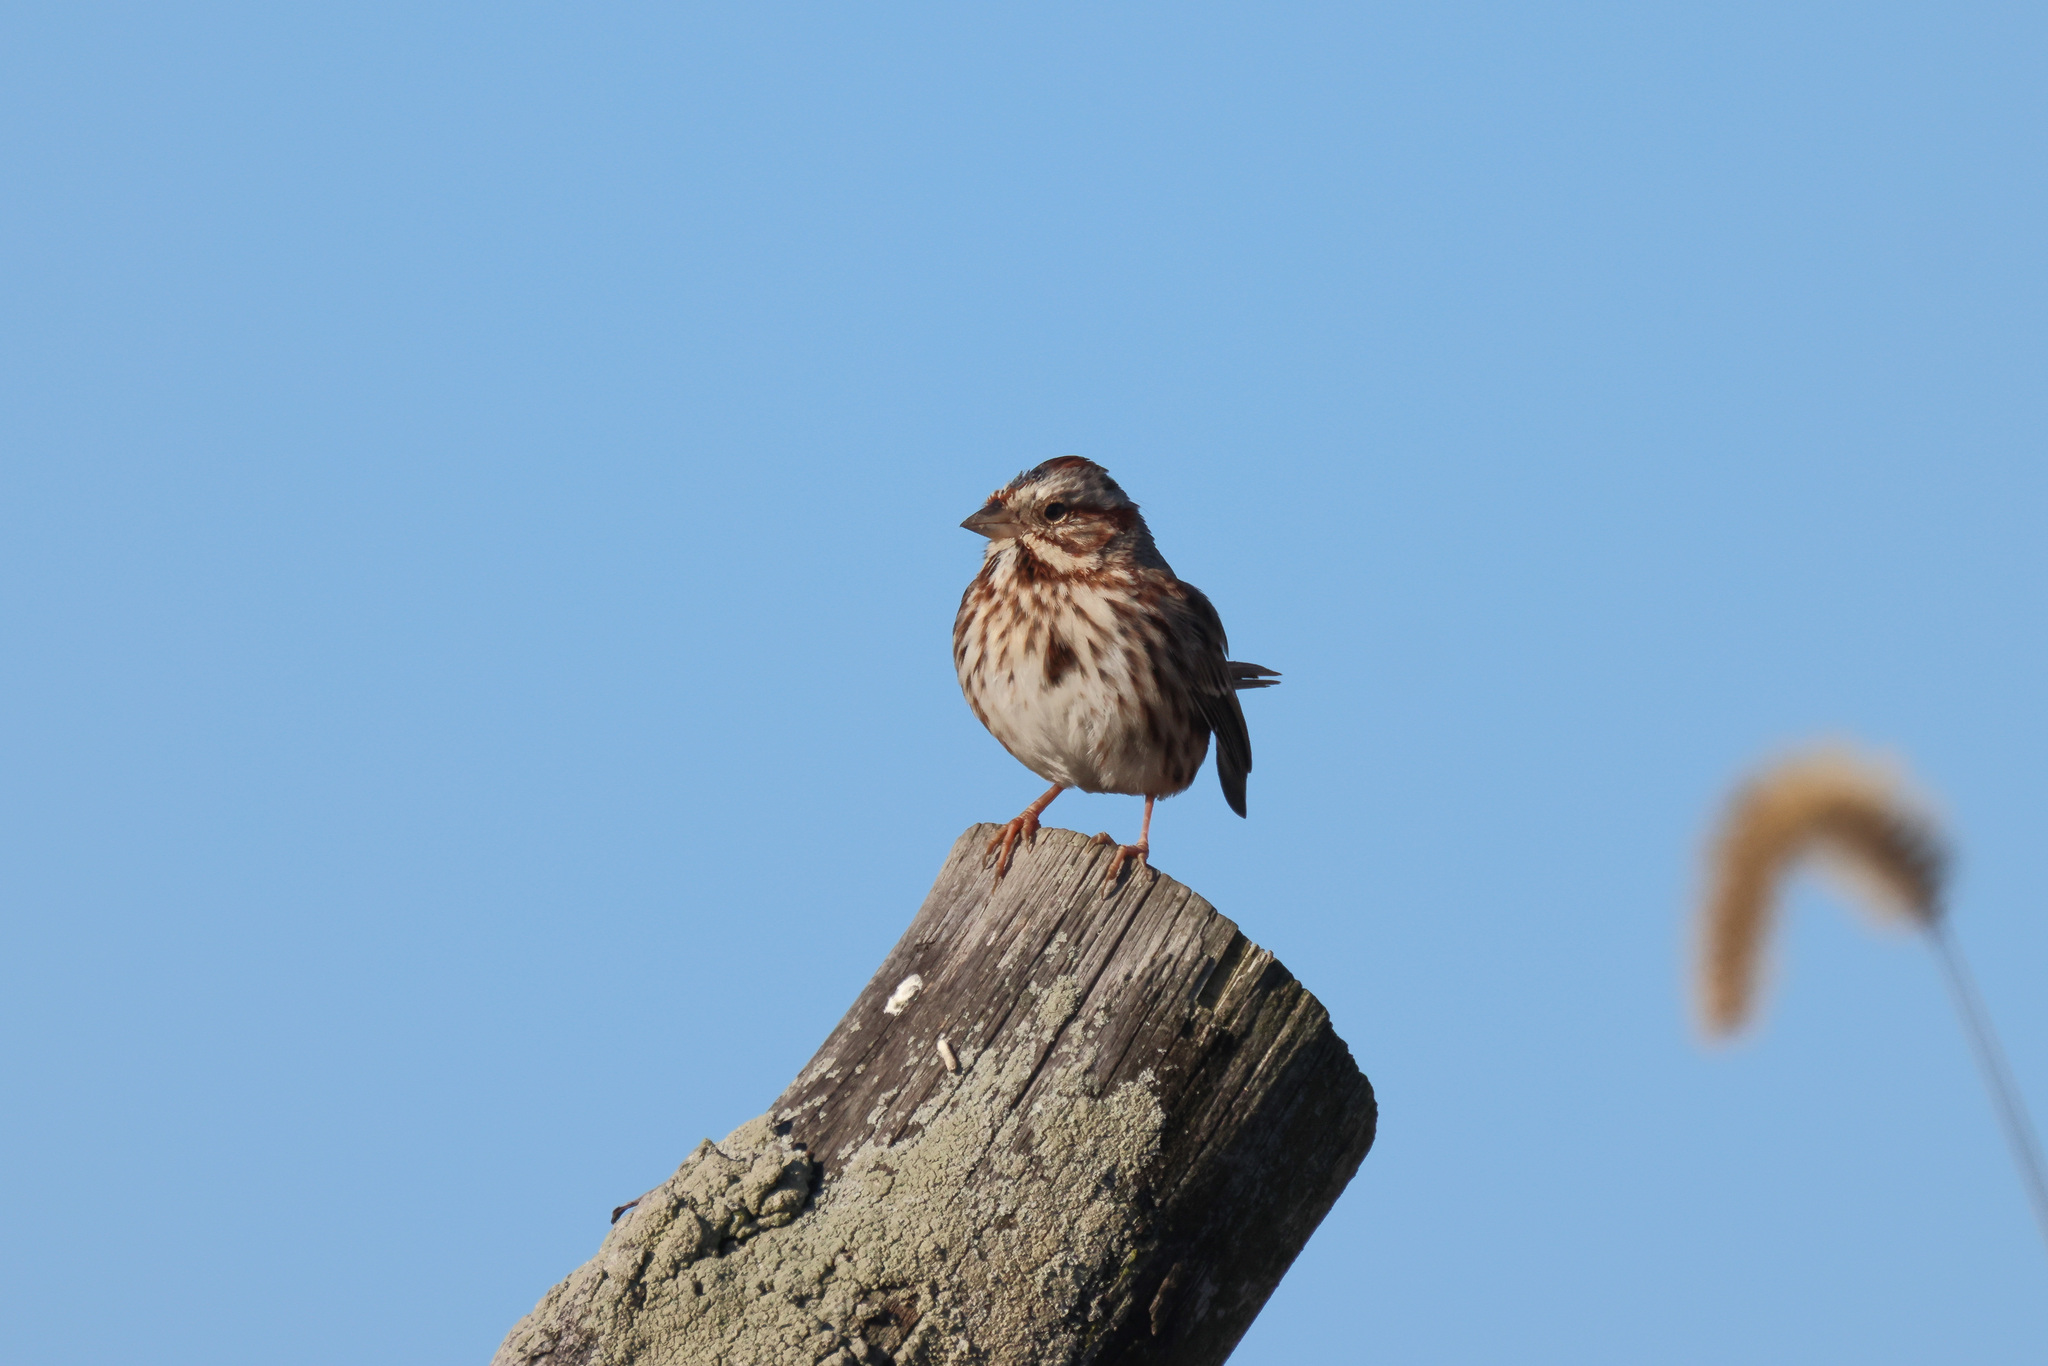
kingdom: Animalia
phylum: Chordata
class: Aves
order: Passeriformes
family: Passerellidae
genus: Melospiza
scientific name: Melospiza melodia
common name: Song sparrow
